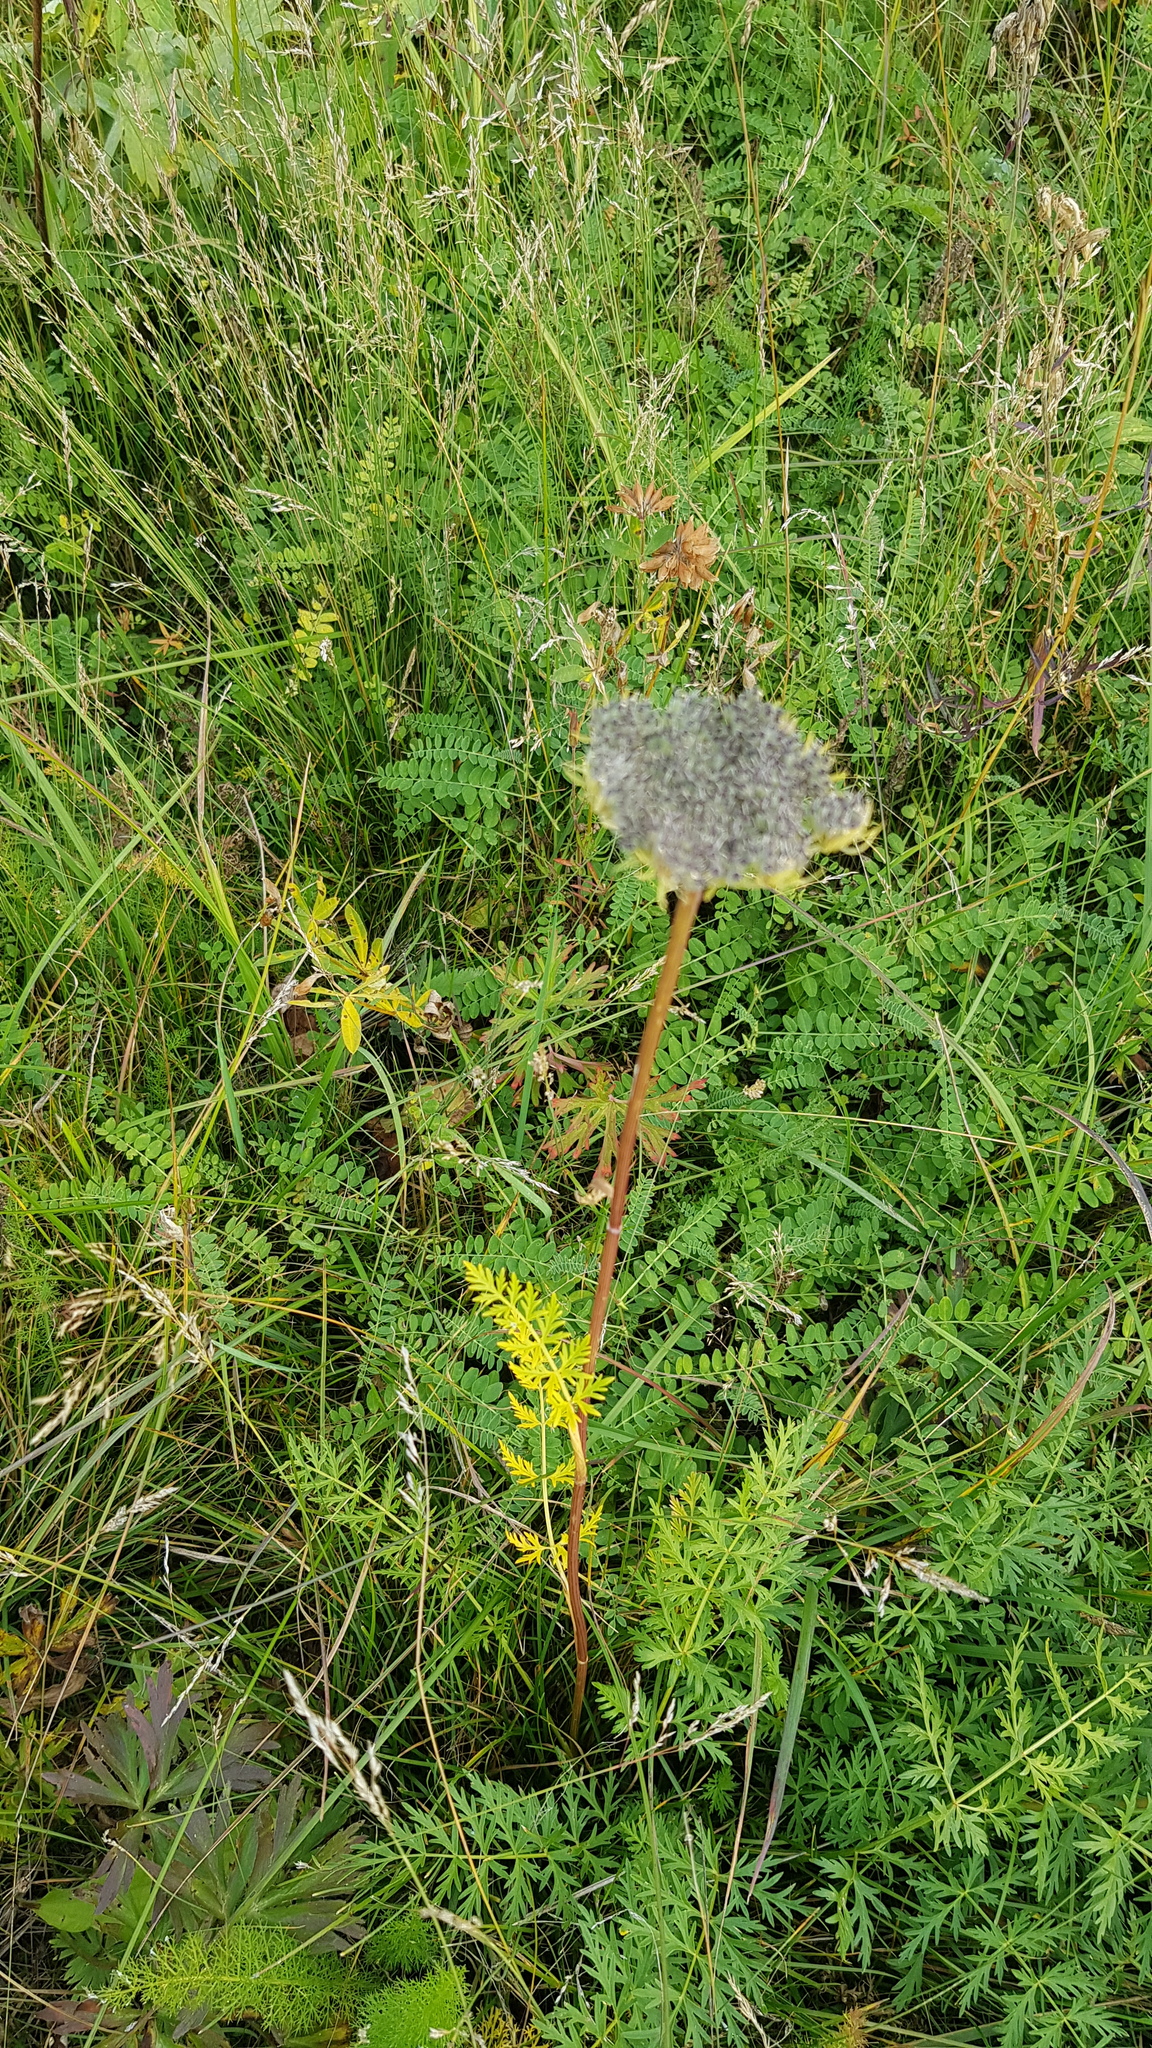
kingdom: Plantae
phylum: Tracheophyta
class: Magnoliopsida
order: Apiales
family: Apiaceae
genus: Seseli
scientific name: Seseli condensatum
